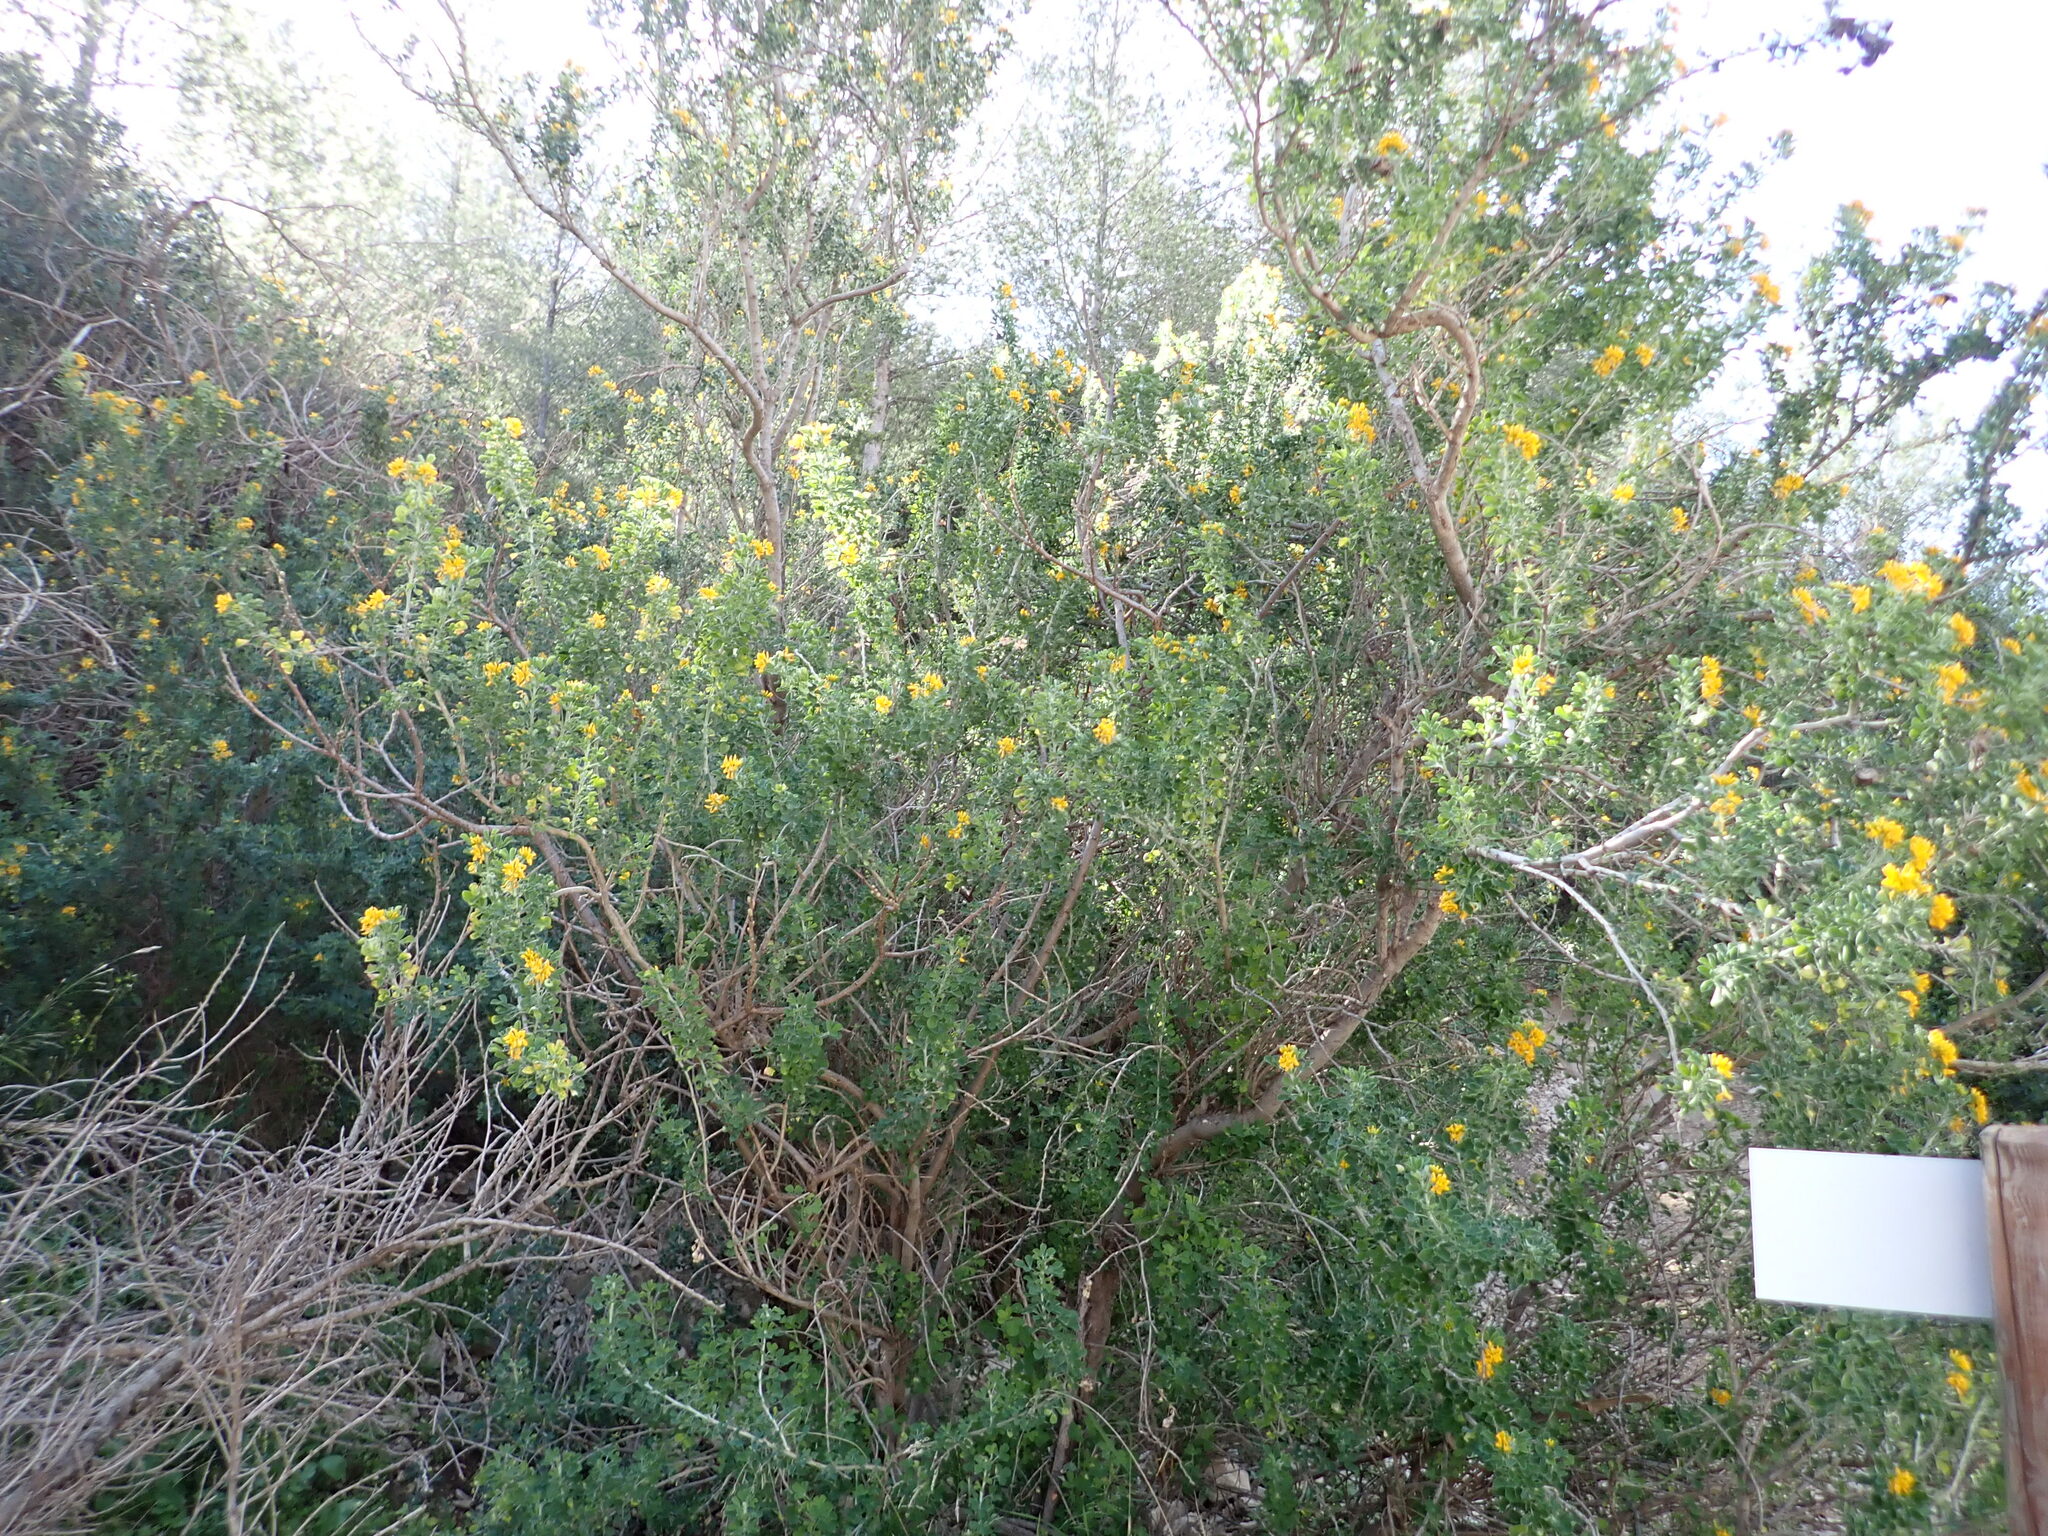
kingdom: Plantae
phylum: Tracheophyta
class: Magnoliopsida
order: Fabales
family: Fabaceae
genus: Medicago
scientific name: Medicago arborea
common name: Moon trefoil
